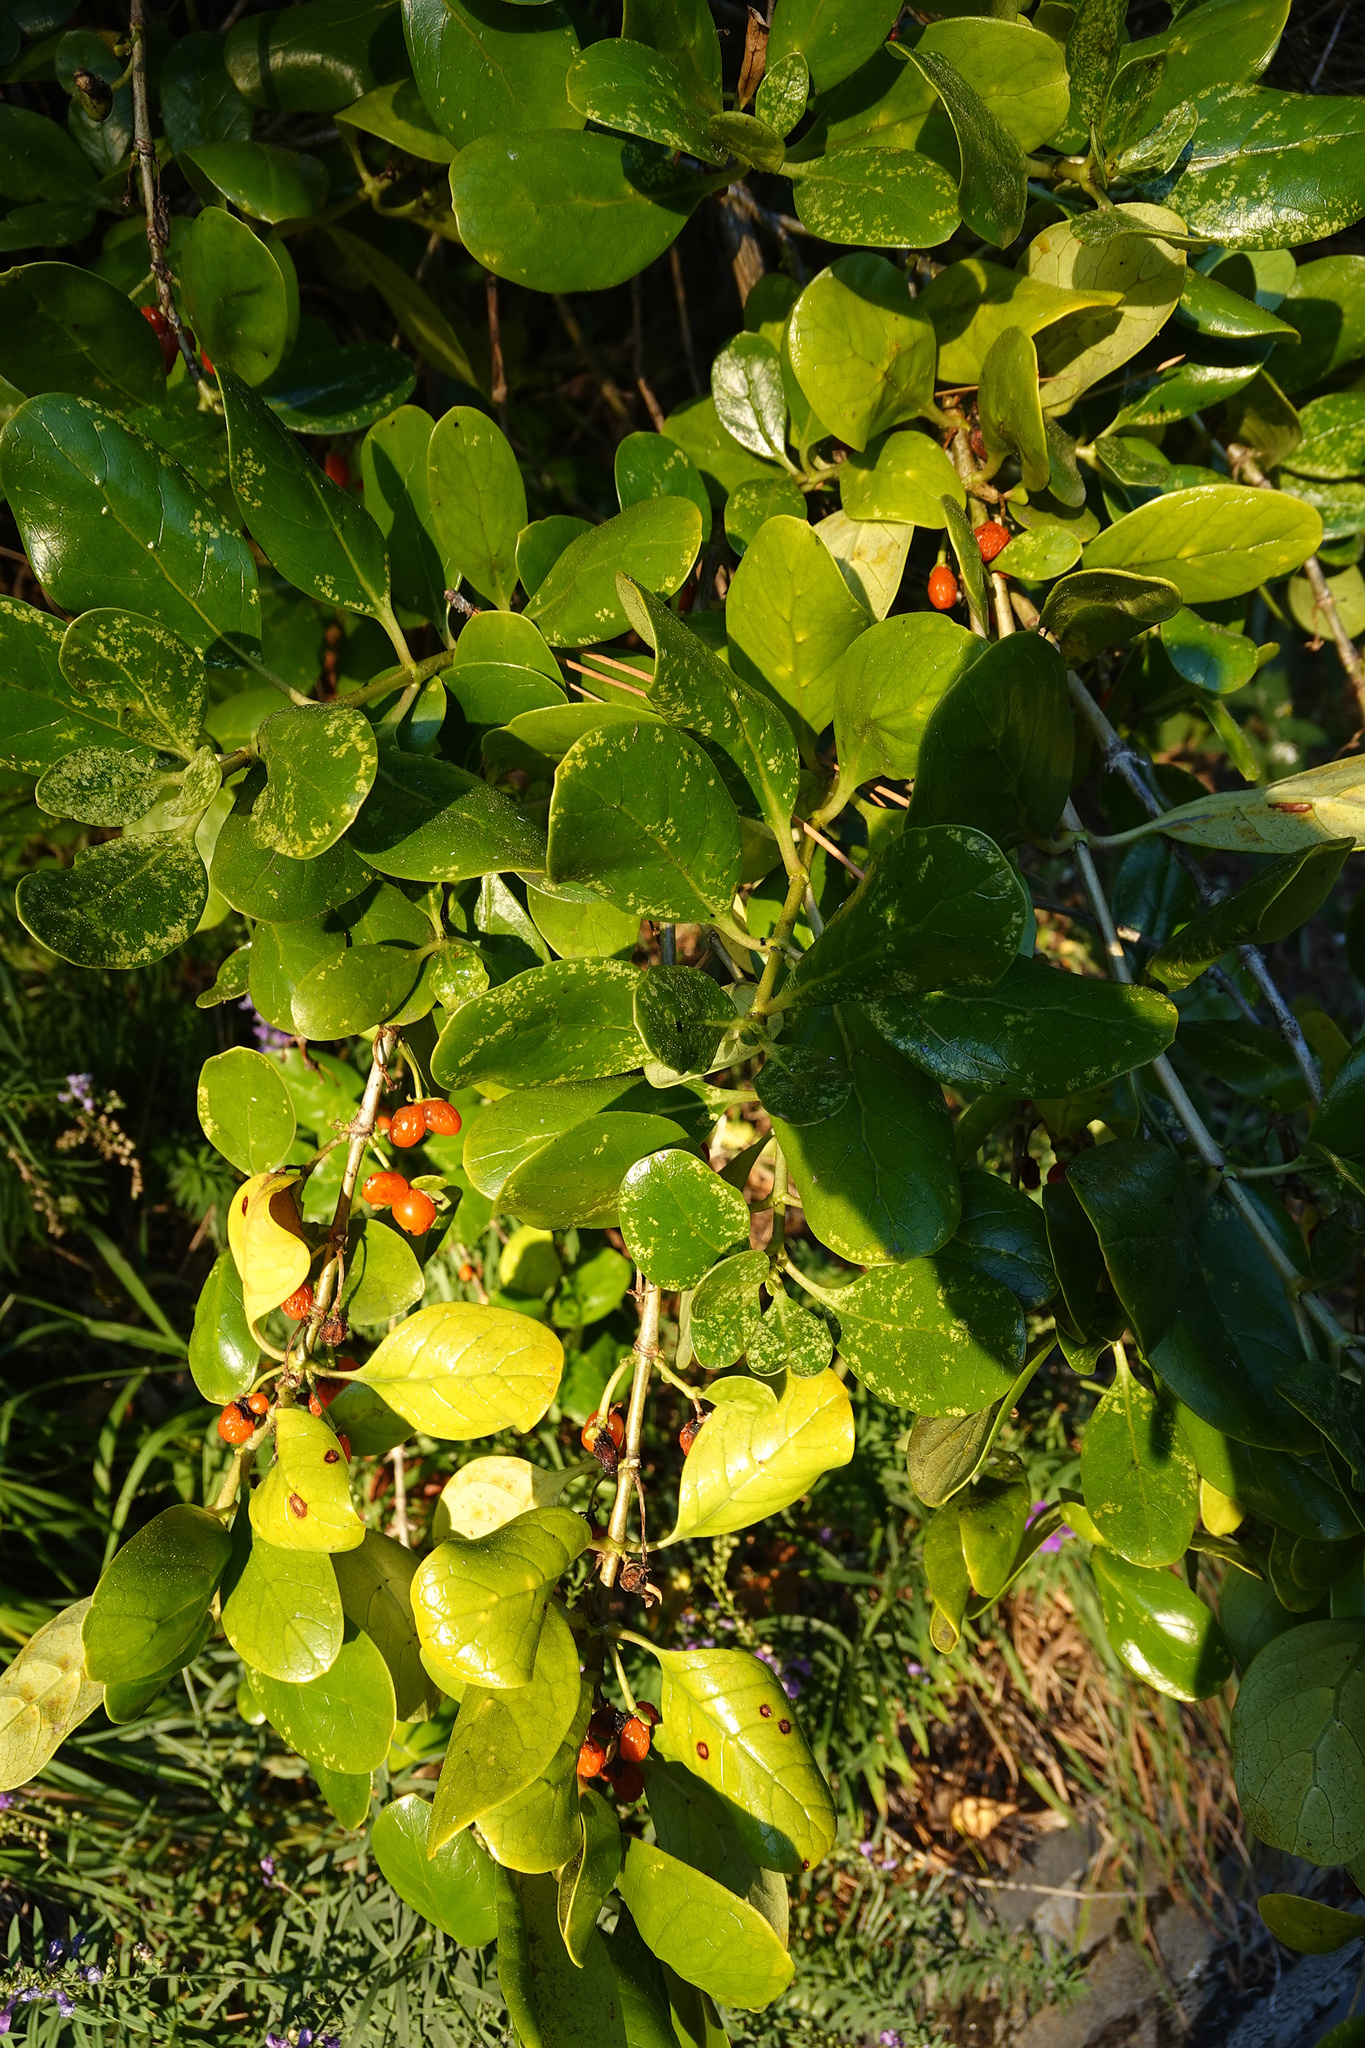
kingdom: Plantae
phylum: Tracheophyta
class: Magnoliopsida
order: Gentianales
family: Rubiaceae
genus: Coprosma
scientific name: Coprosma repens
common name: Tree bedstraw
